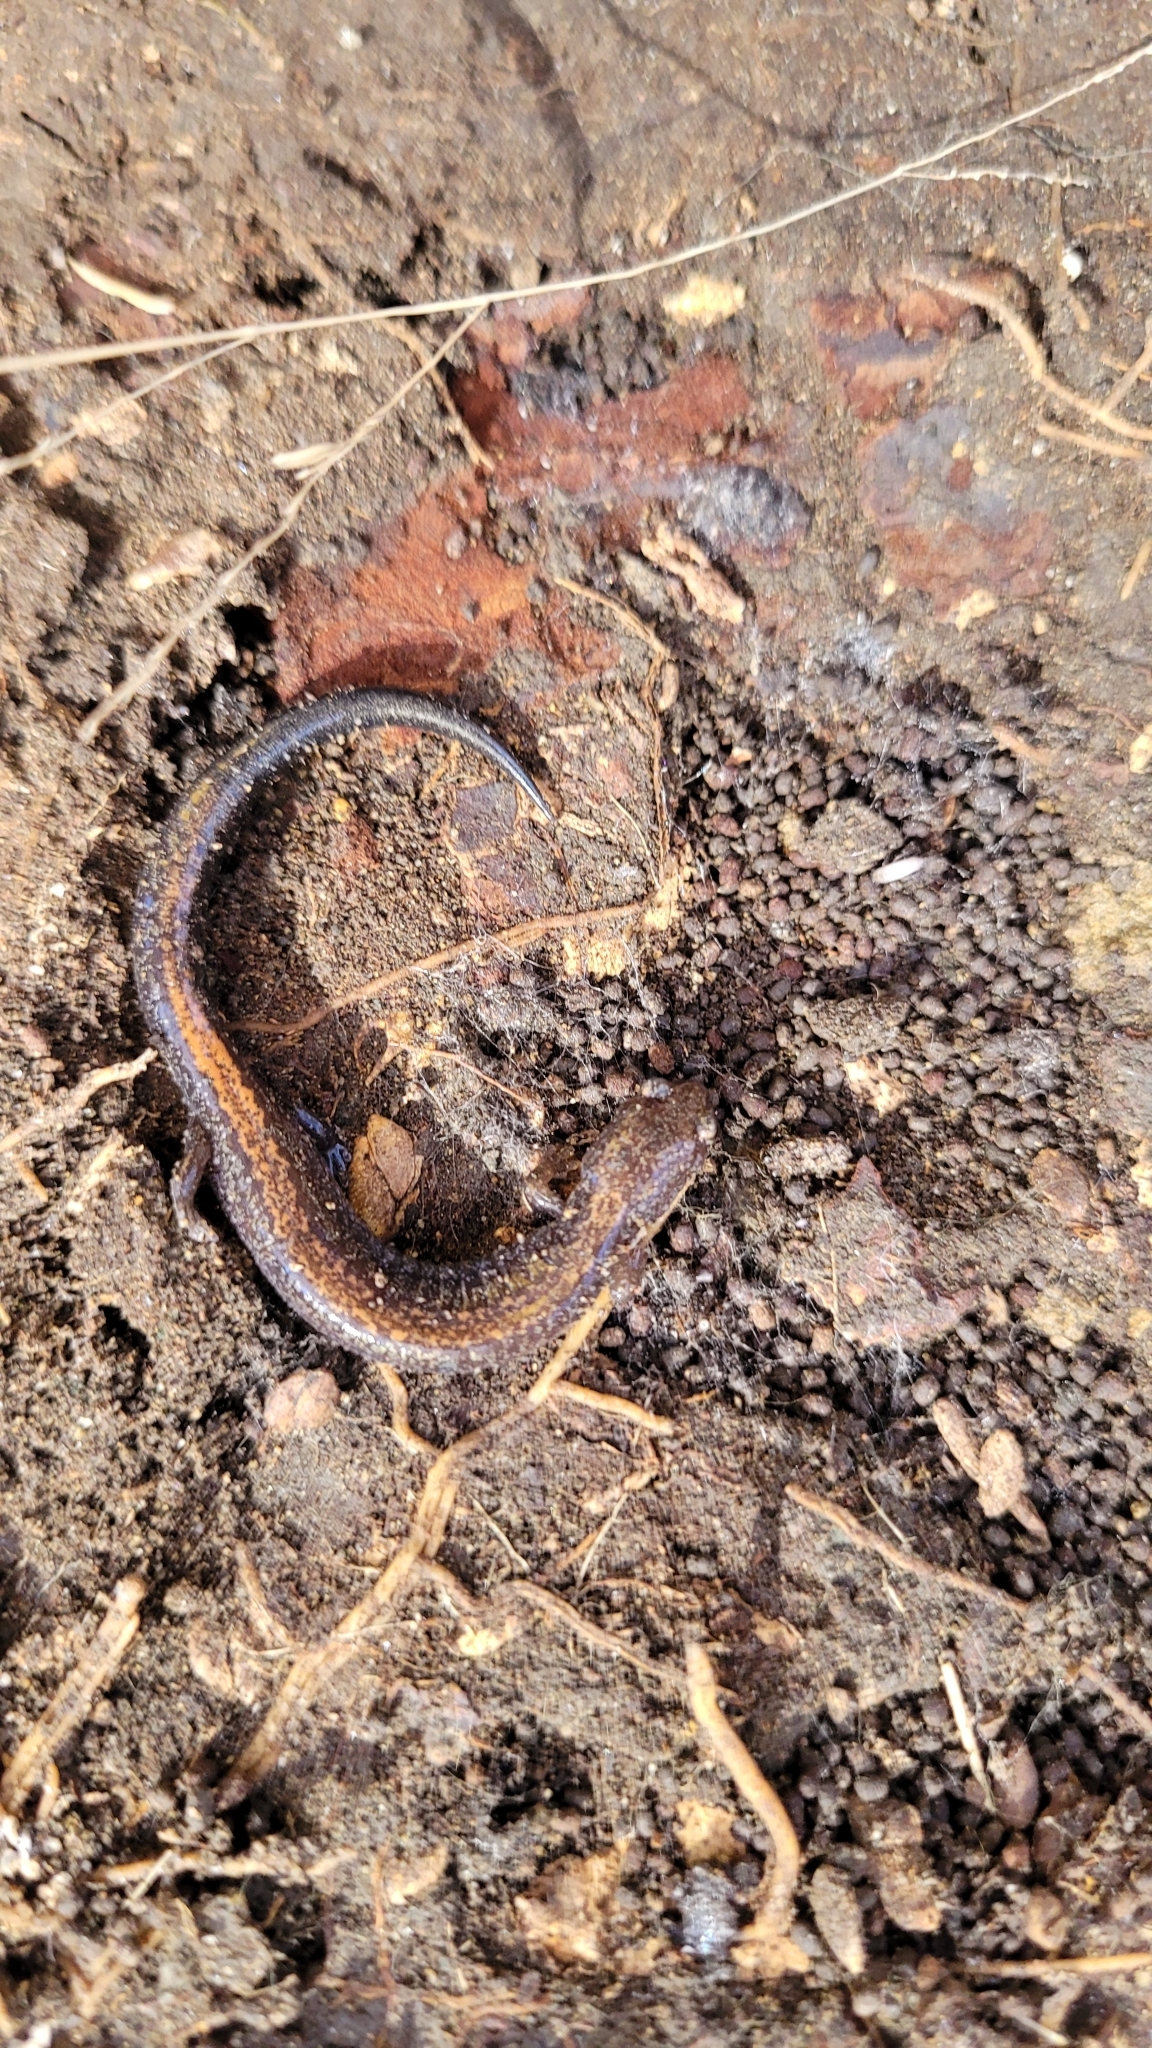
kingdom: Animalia
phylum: Chordata
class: Amphibia
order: Caudata
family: Plethodontidae
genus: Plethodon
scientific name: Plethodon cinereus
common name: Redback salamander
